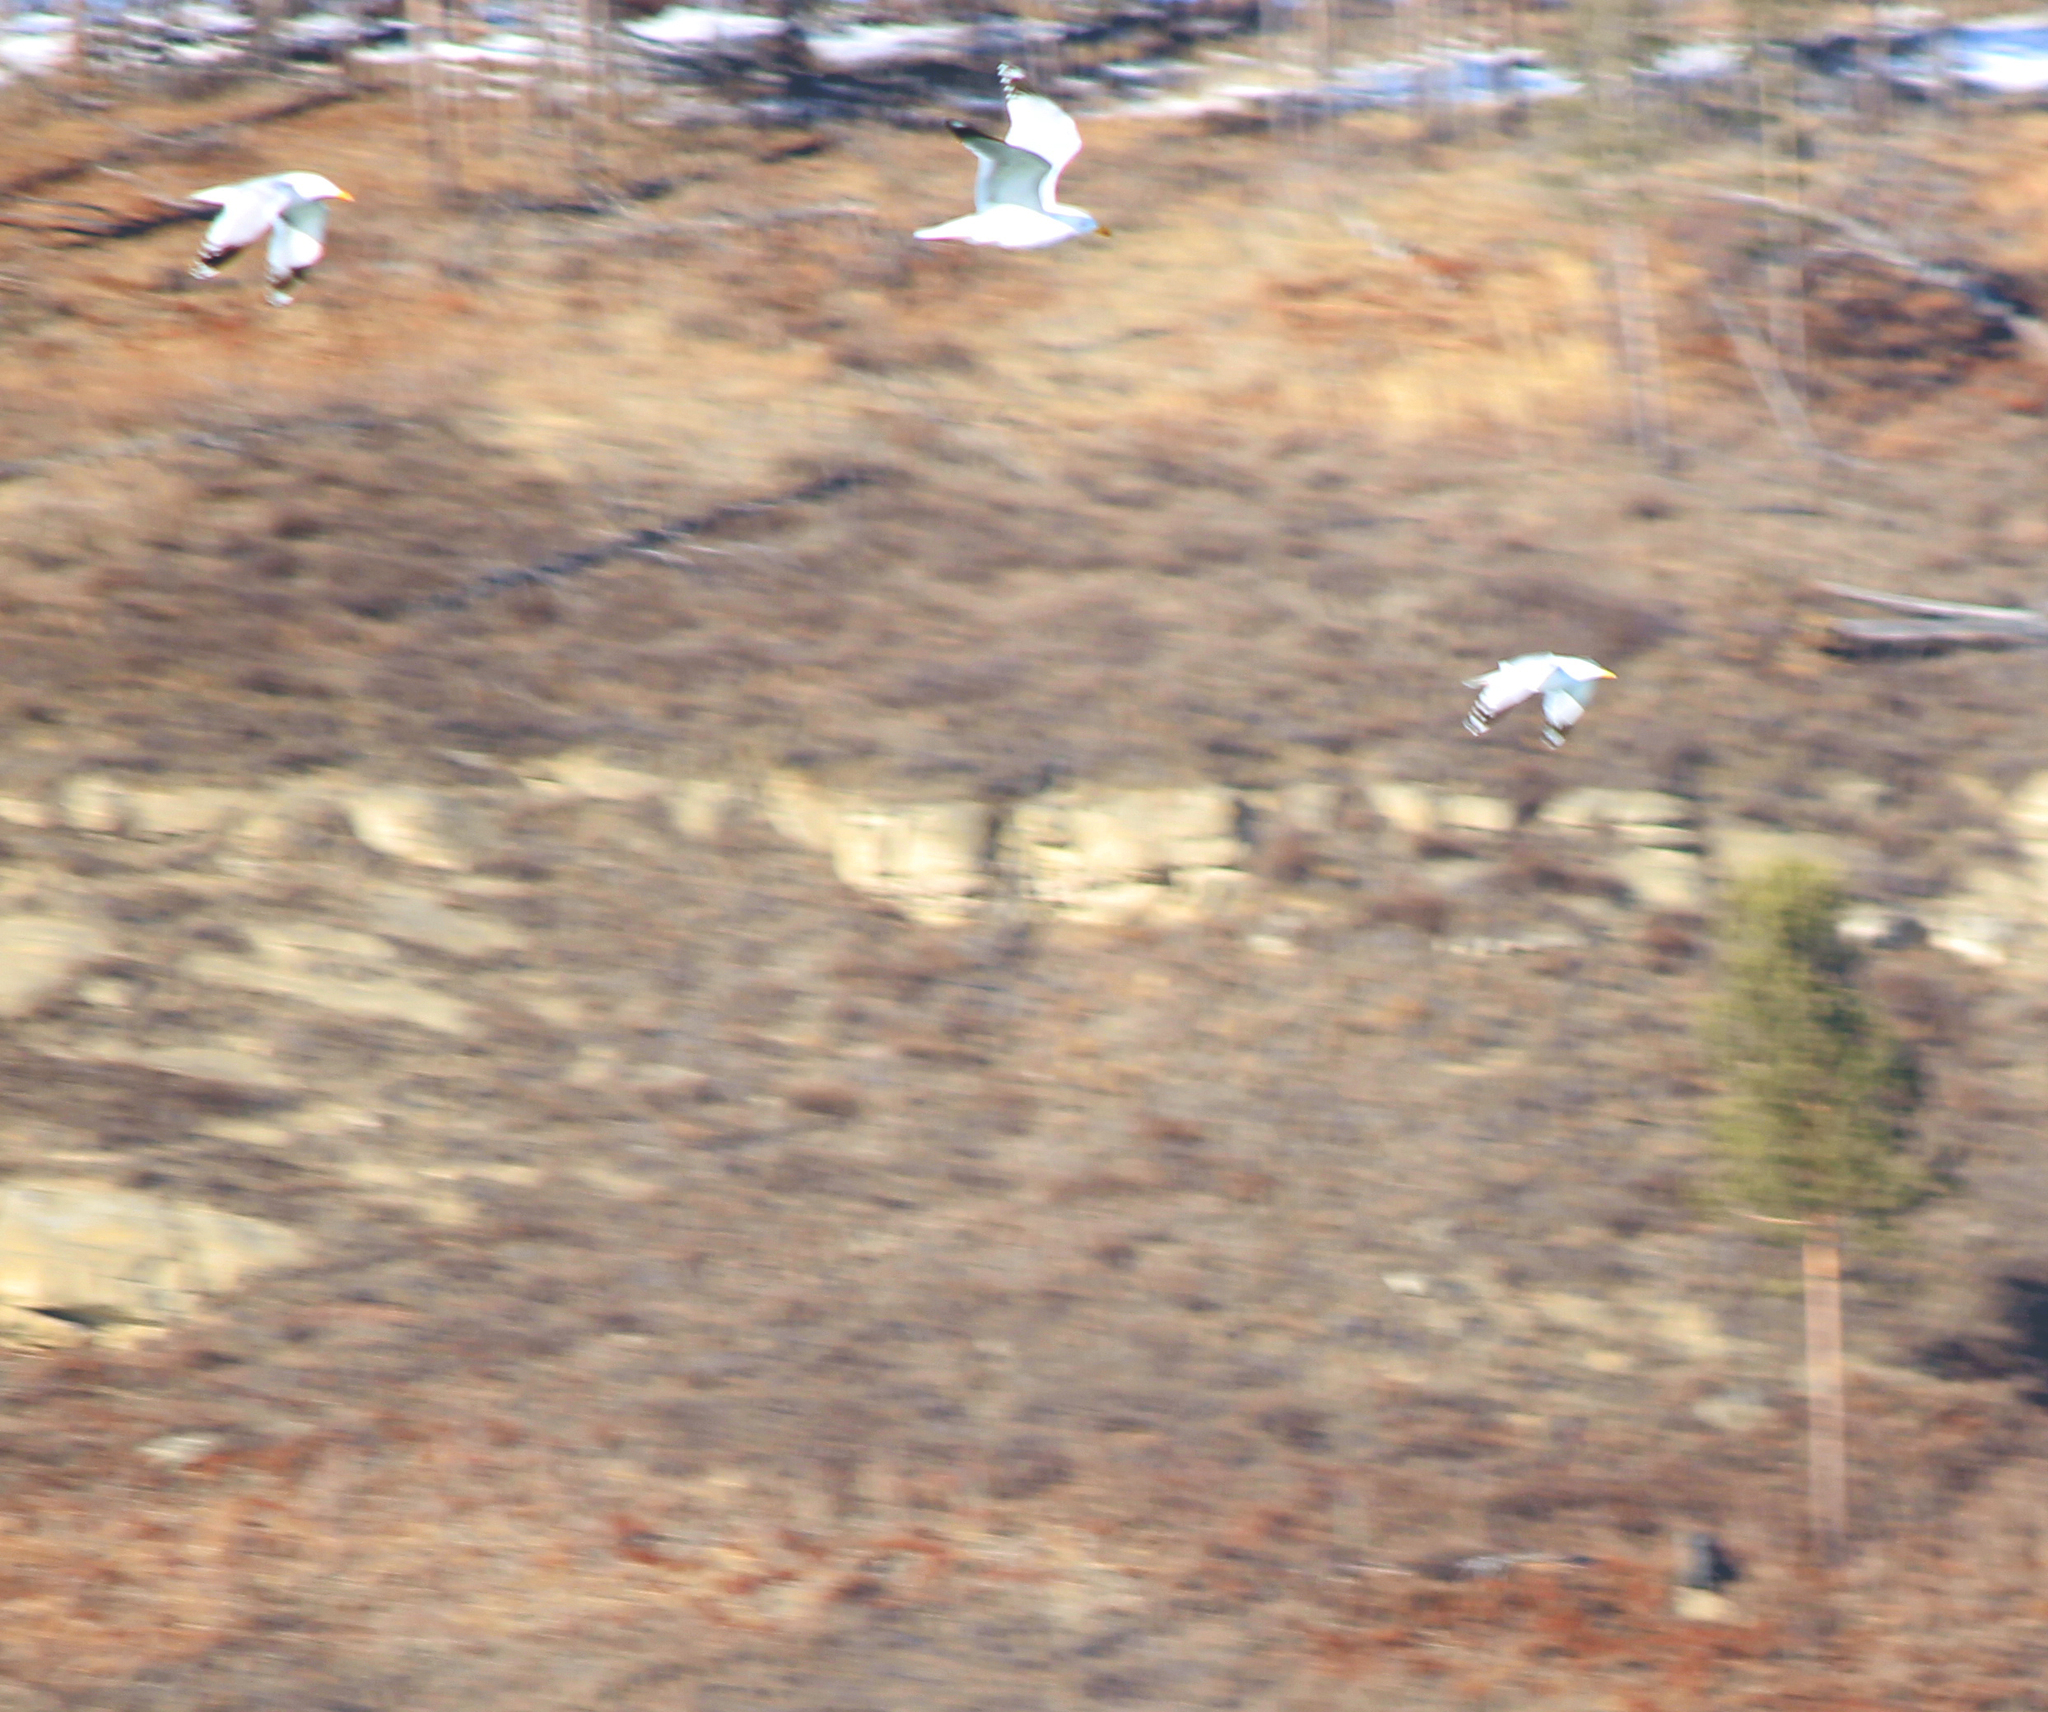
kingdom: Animalia
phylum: Chordata
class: Aves
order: Charadriiformes
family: Laridae
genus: Larus
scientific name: Larus vegae
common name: Vega gull
